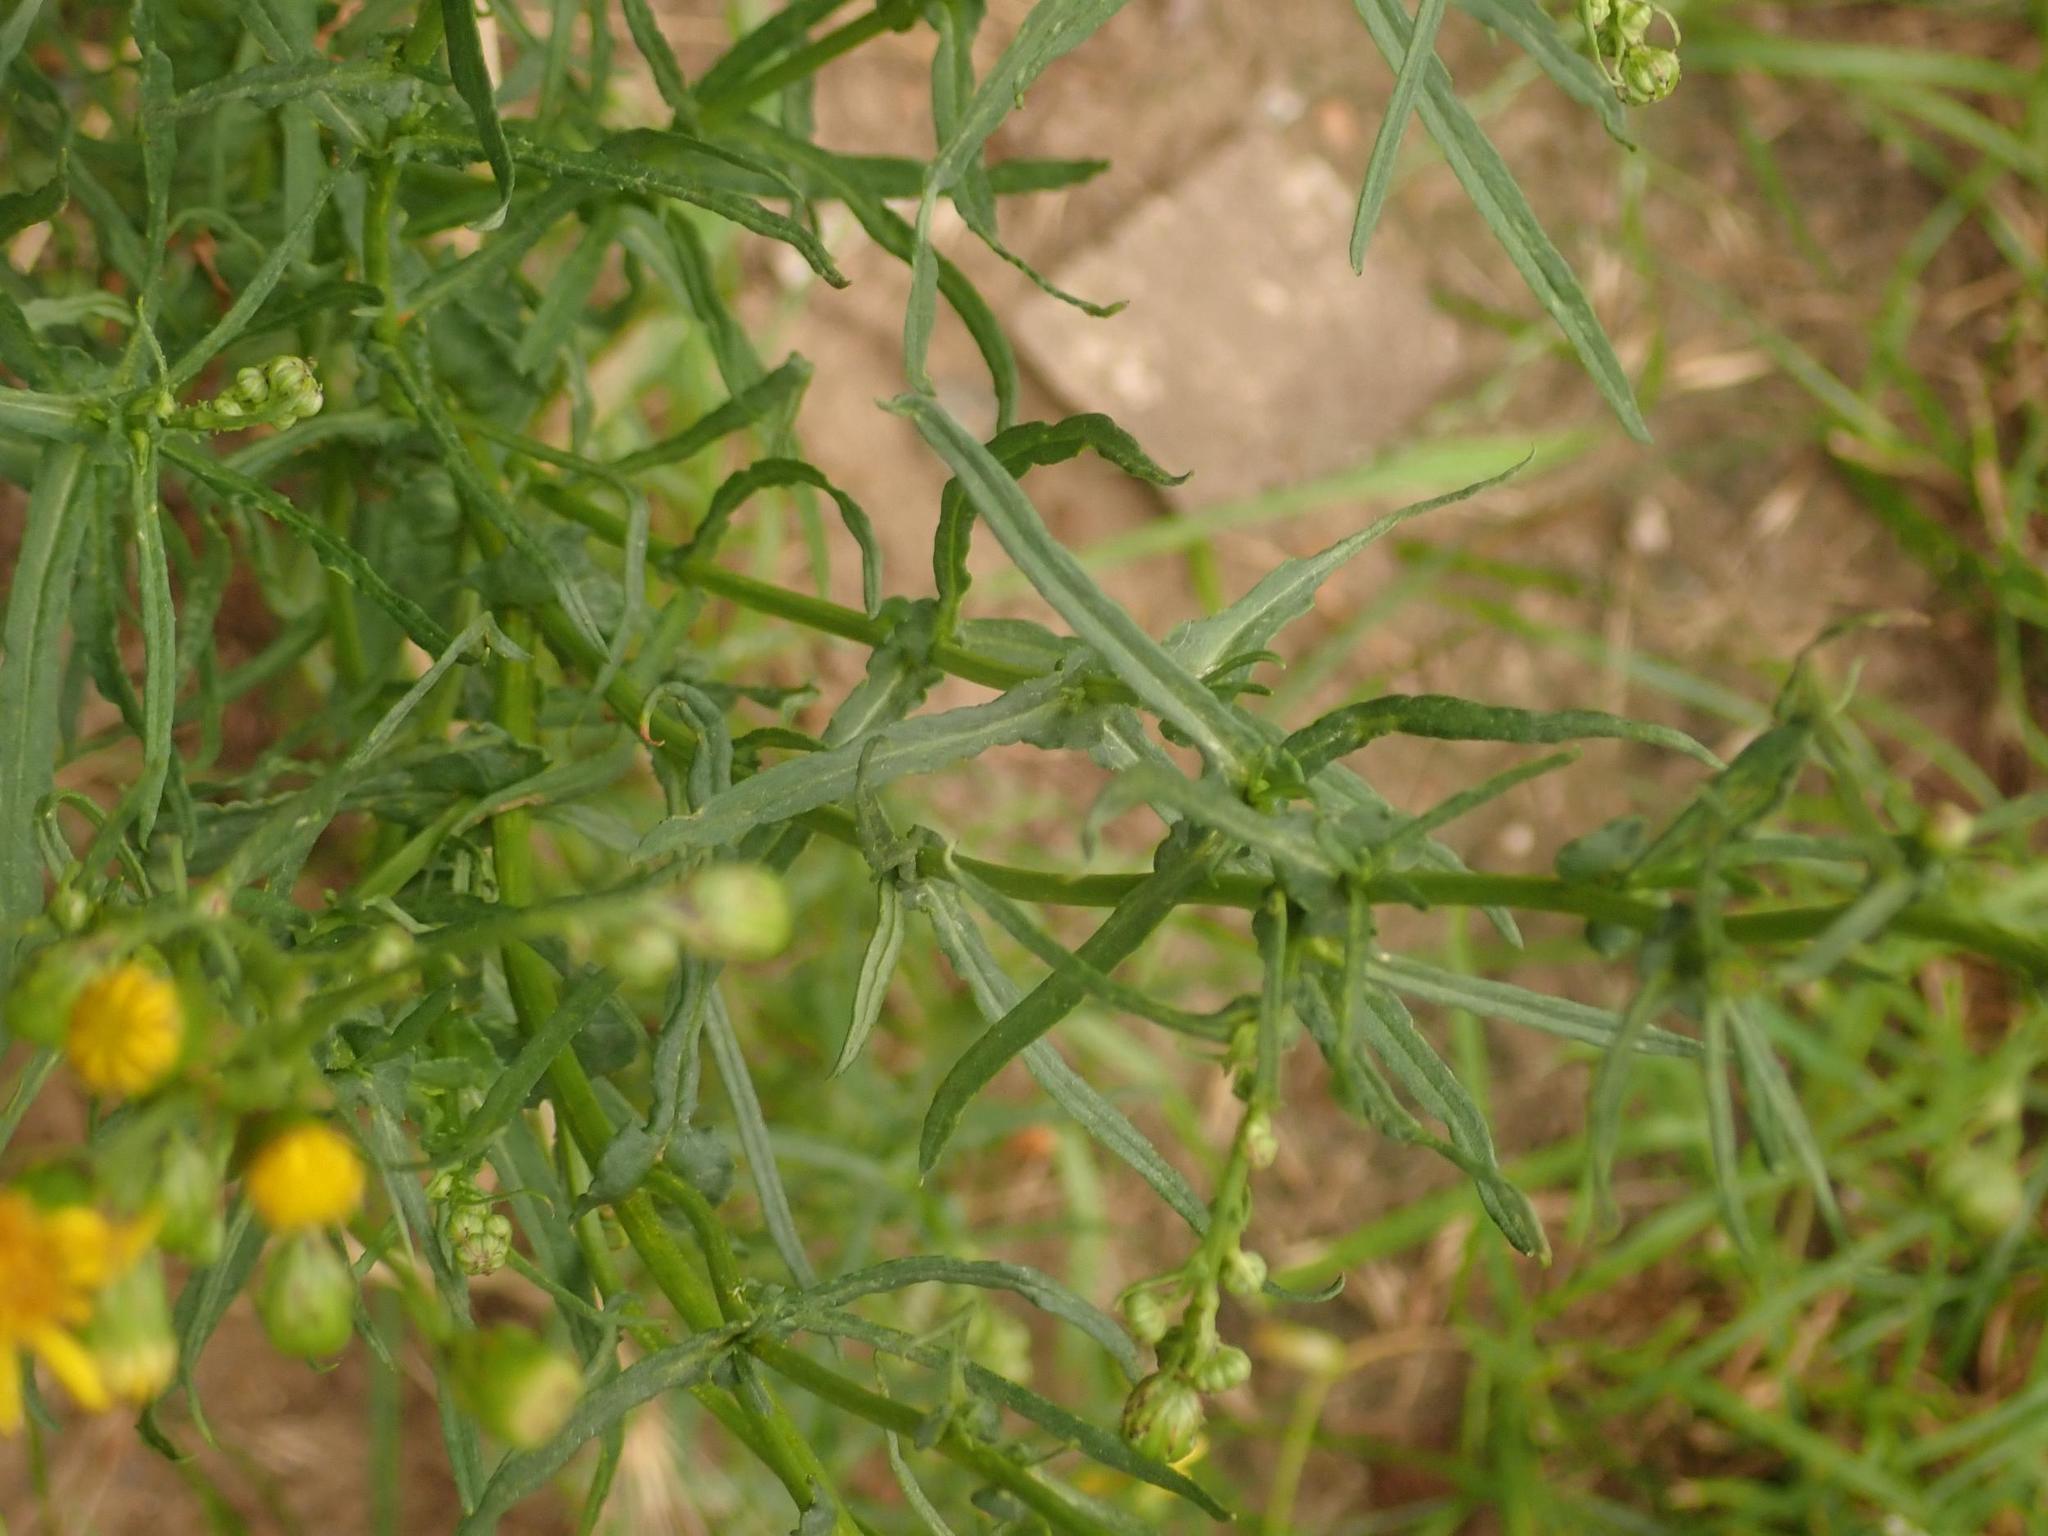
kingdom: Plantae
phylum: Tracheophyta
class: Magnoliopsida
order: Asterales
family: Asteraceae
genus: Senecio
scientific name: Senecio inaequidens
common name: Narrow-leaved ragwort
